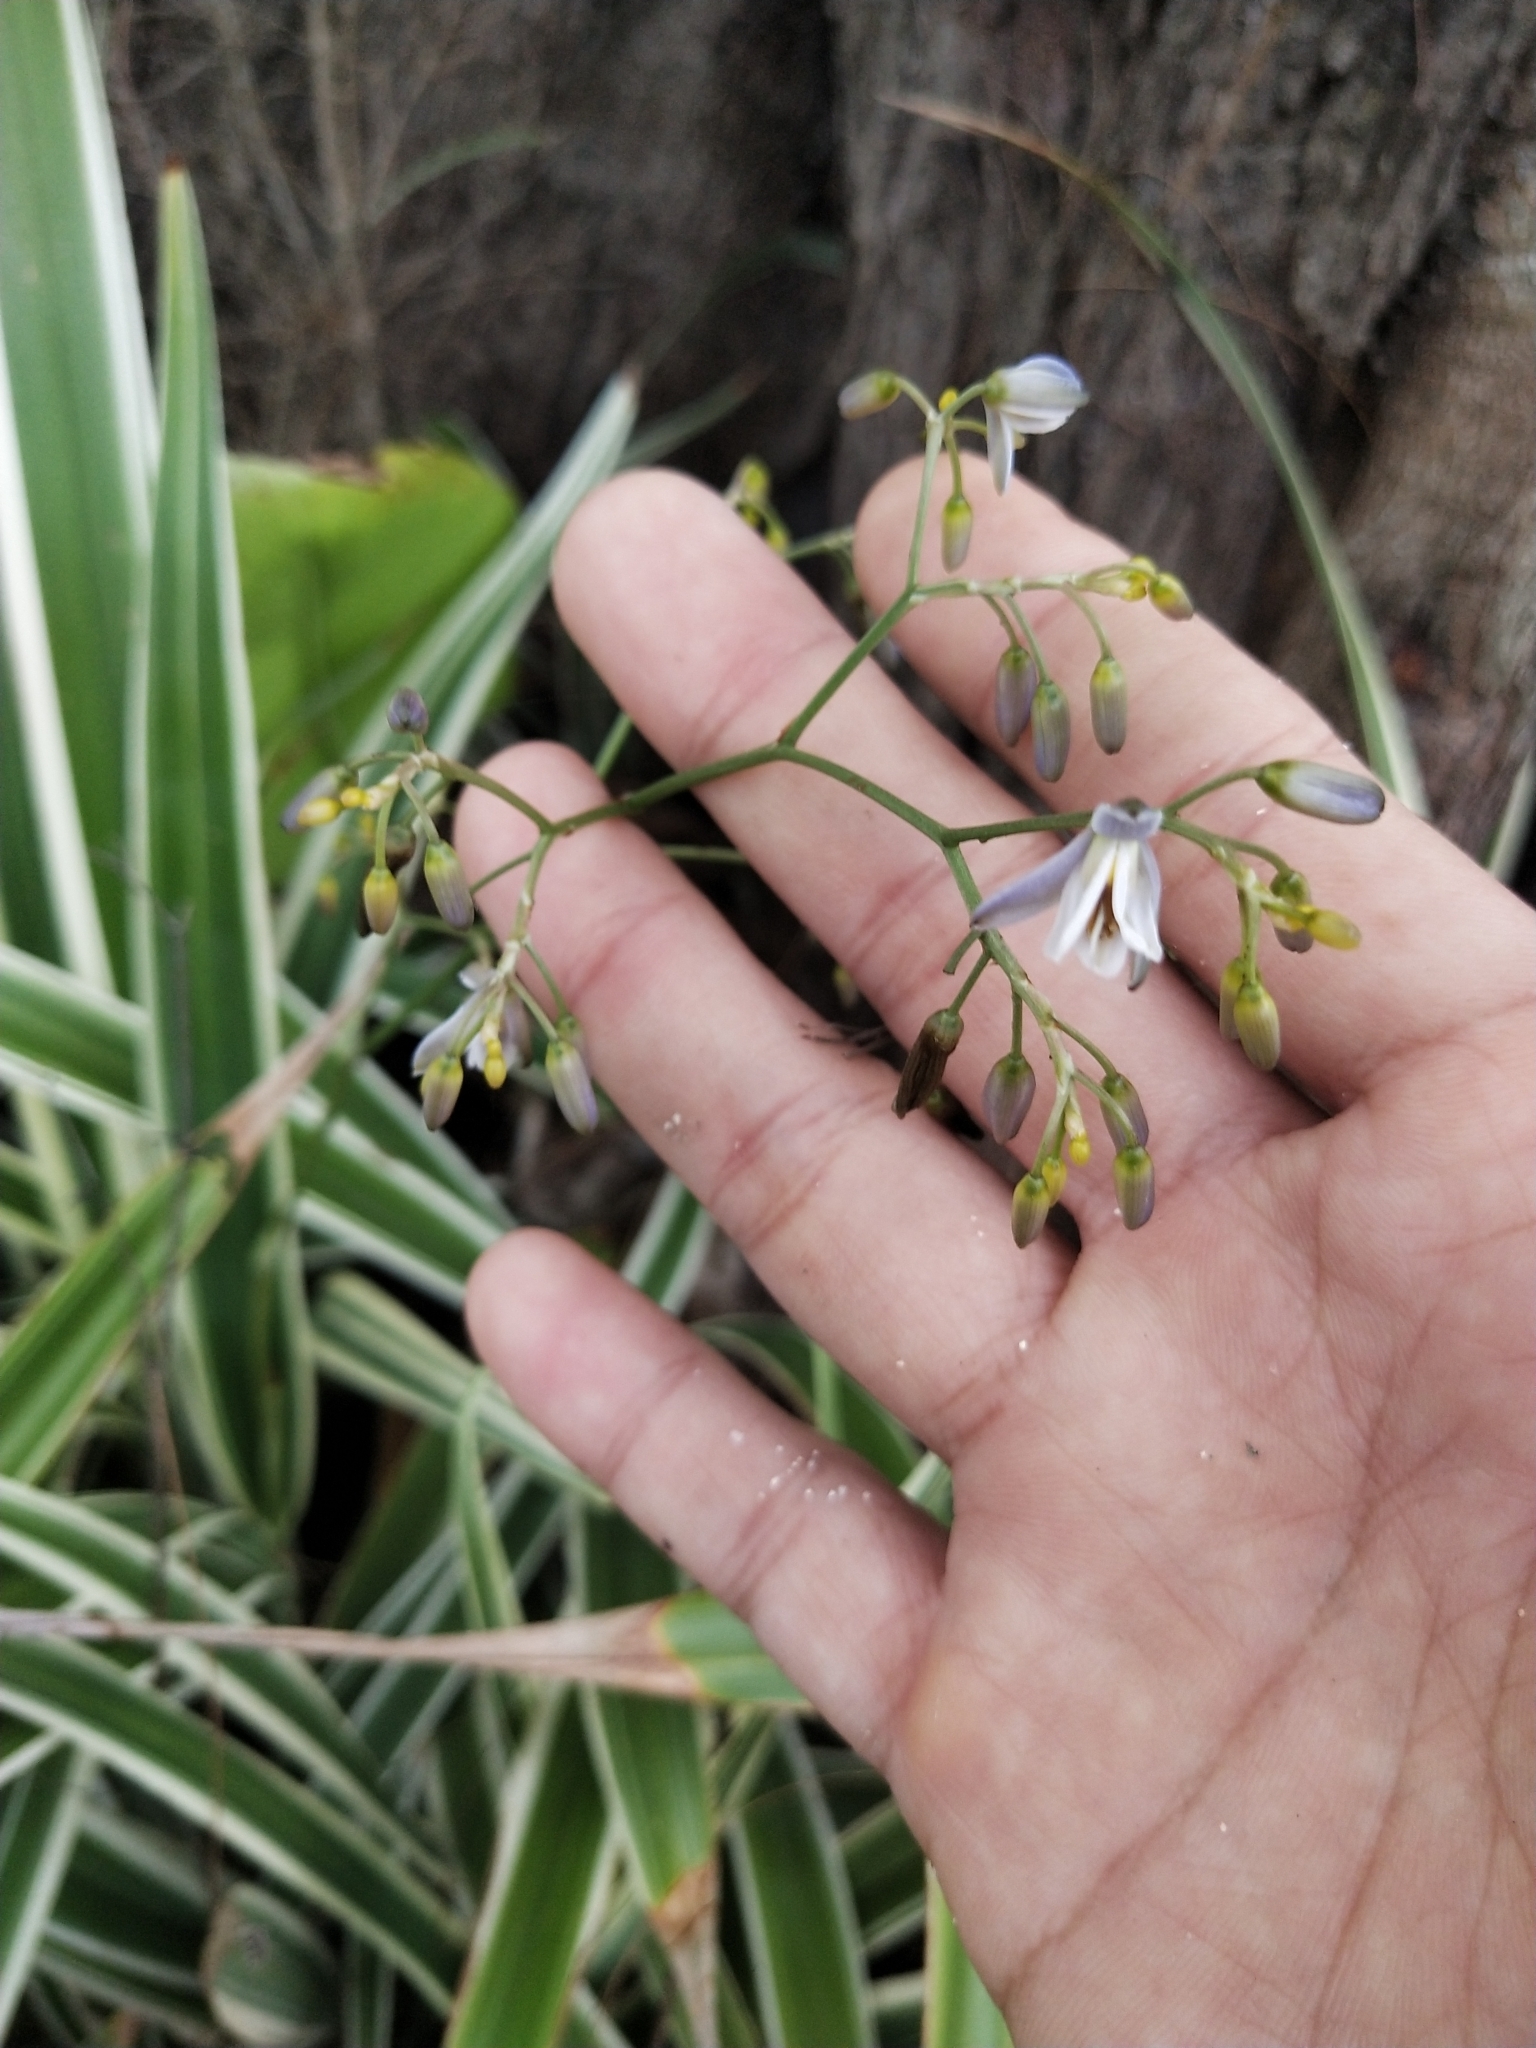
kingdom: Plantae
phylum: Tracheophyta
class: Liliopsida
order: Asparagales
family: Asphodelaceae
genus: Dianella
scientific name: Dianella ensifolia
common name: New zealand lilyplant
